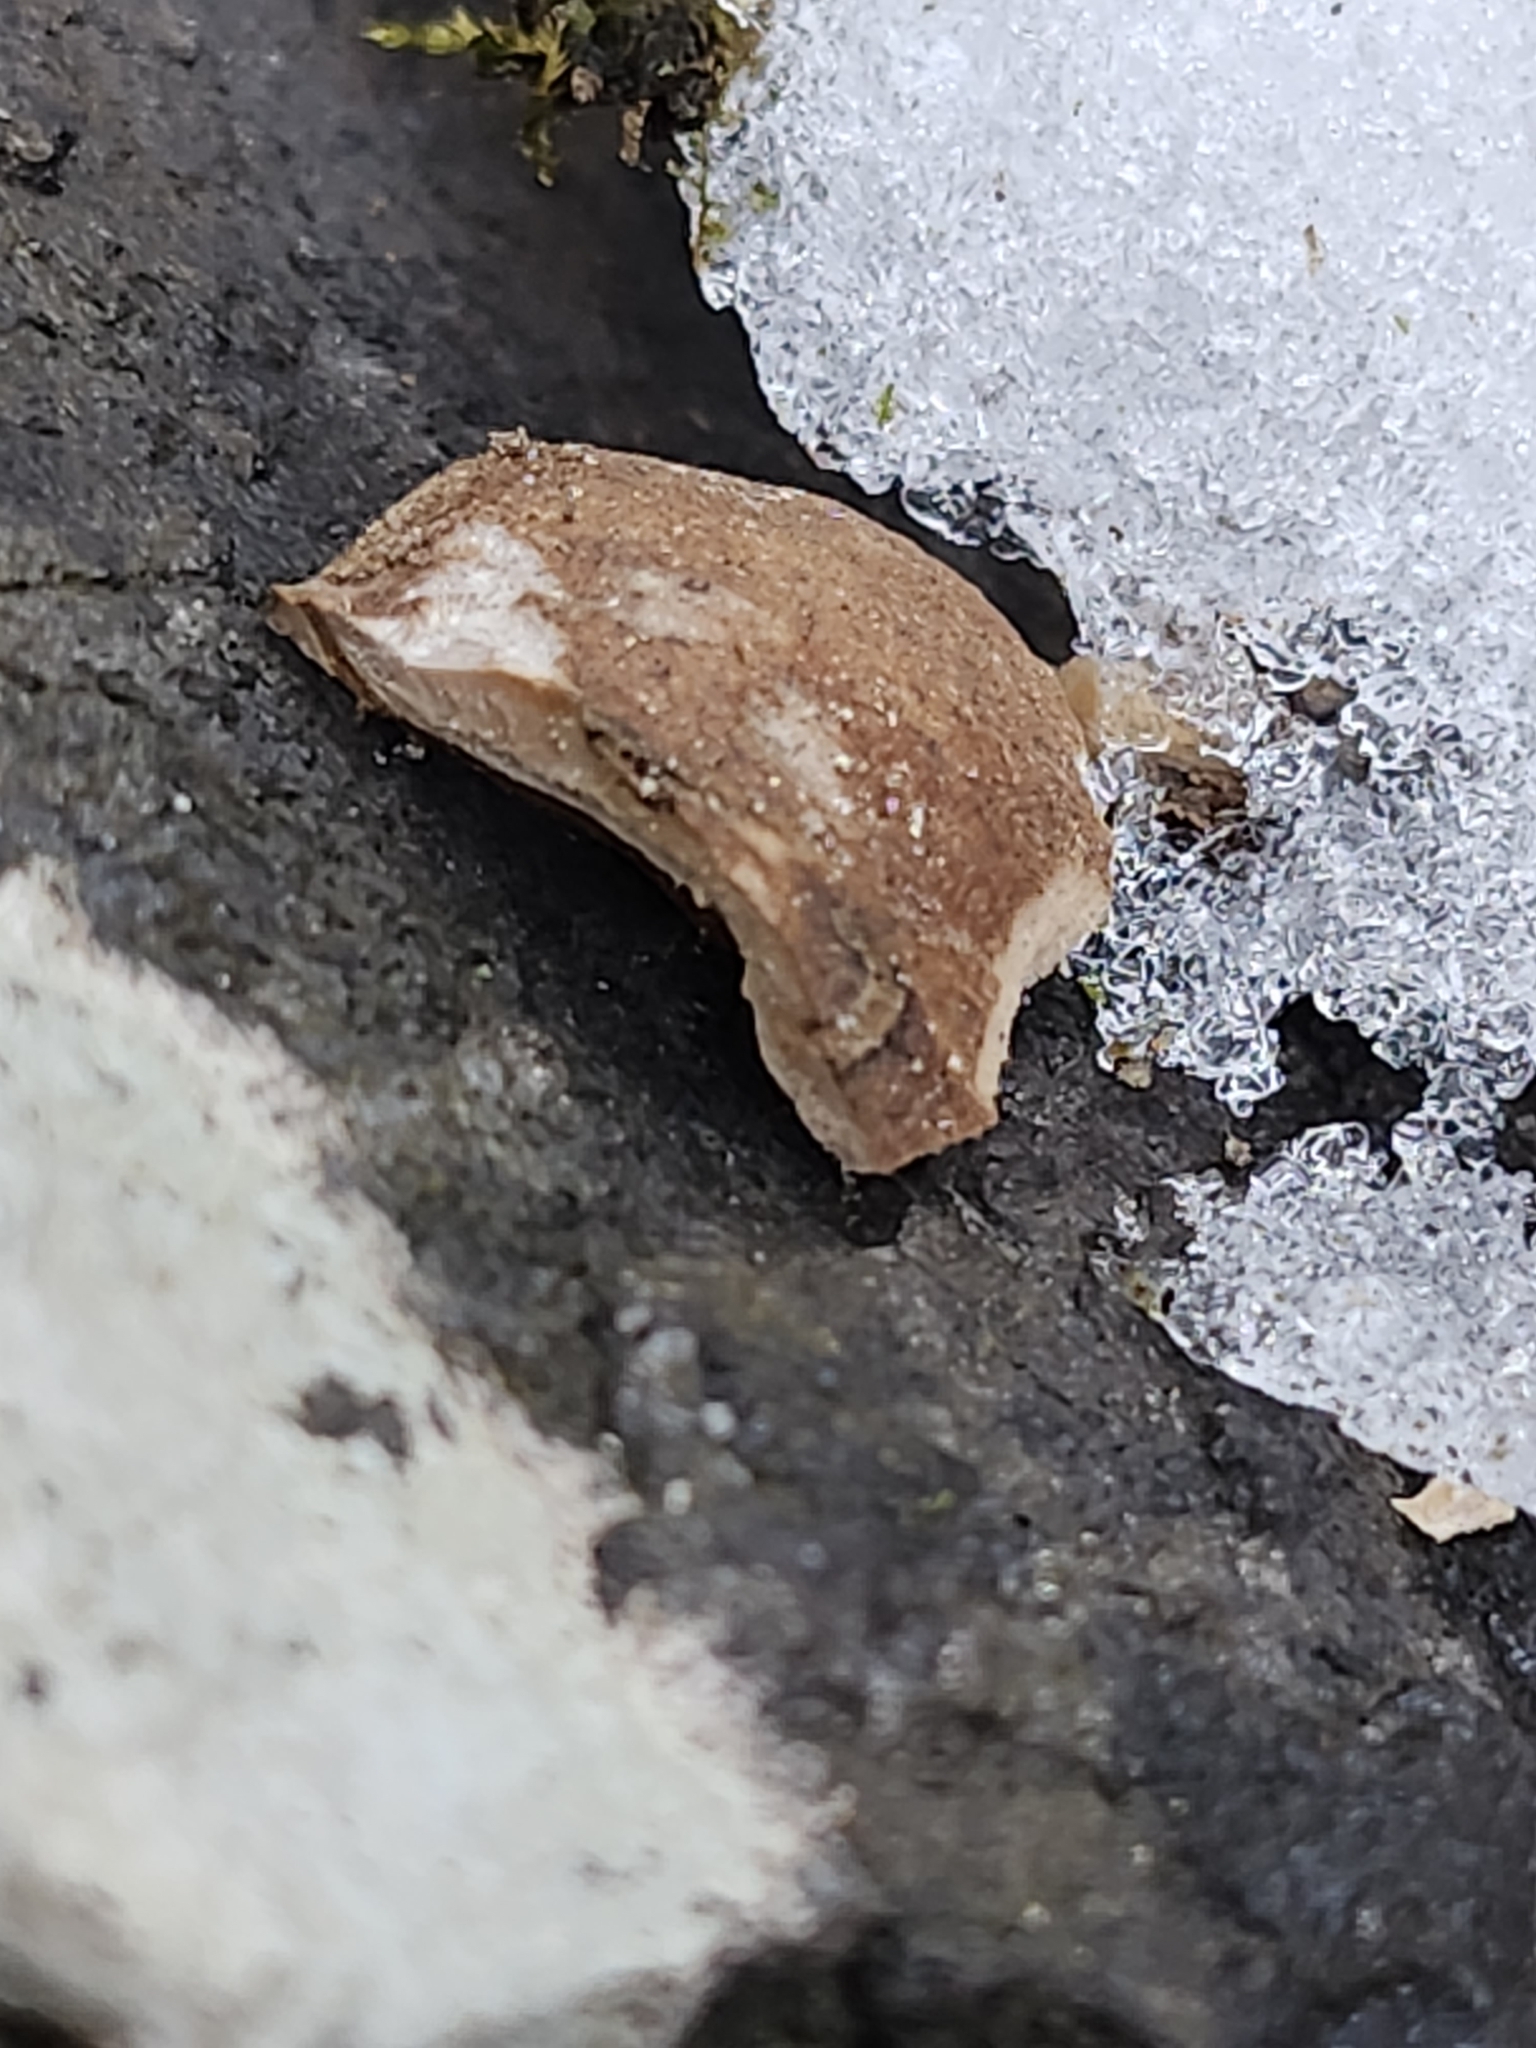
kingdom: Animalia
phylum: Chordata
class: Mammalia
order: Rodentia
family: Sciuridae
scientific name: Sciuridae
